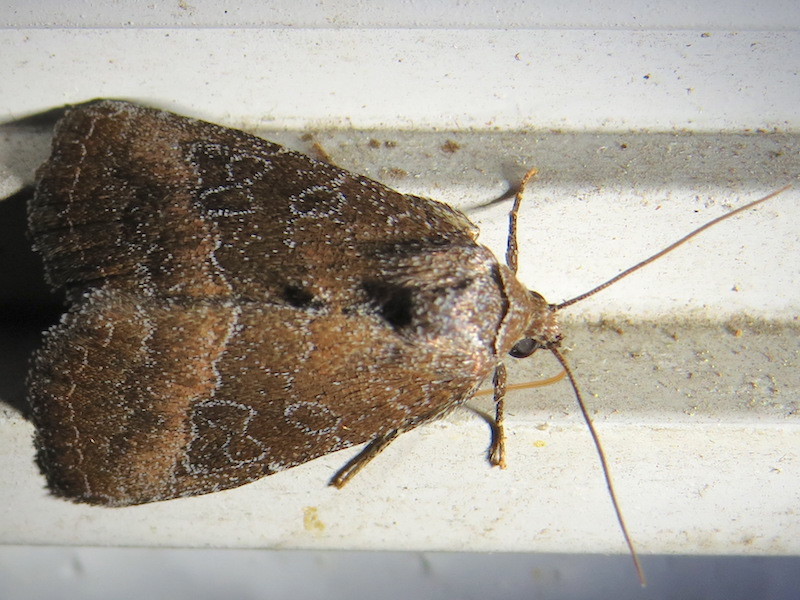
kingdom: Animalia
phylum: Arthropoda
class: Insecta
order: Lepidoptera
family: Noctuidae
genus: Ogdoconta
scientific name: Ogdoconta cinereola
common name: Common pinkband
